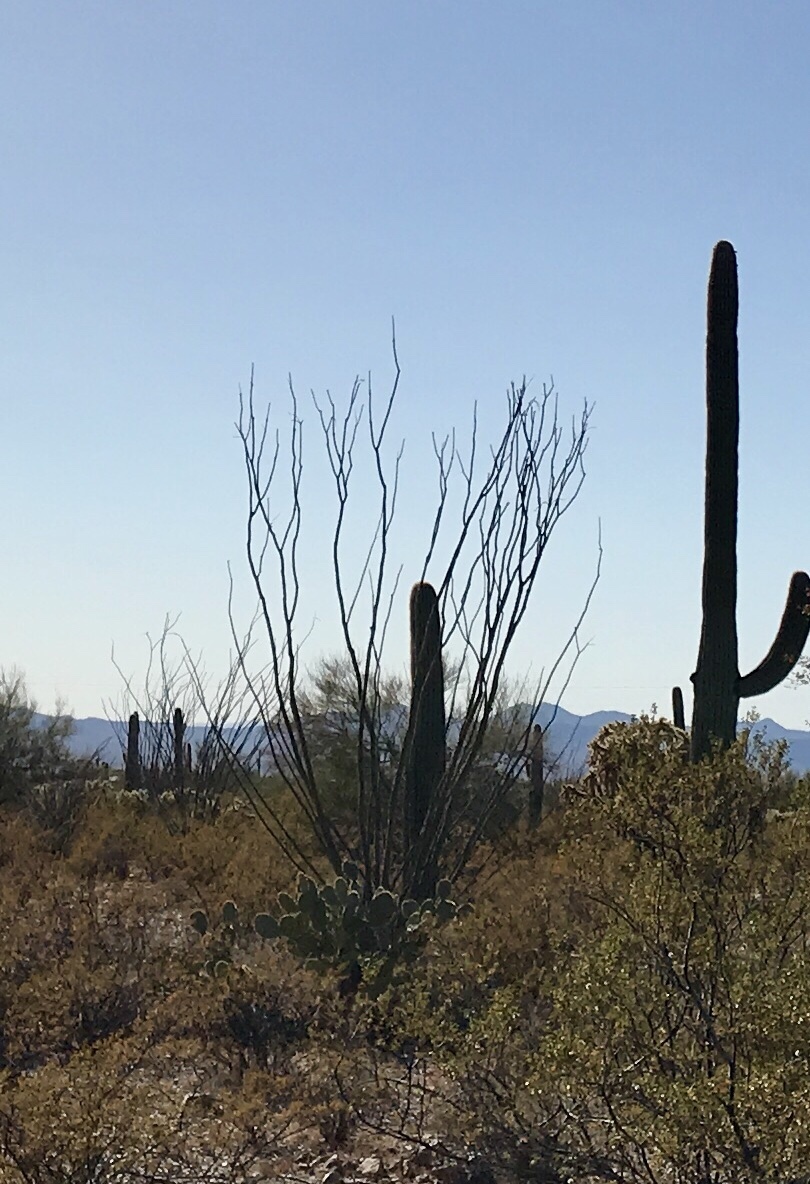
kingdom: Plantae
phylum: Tracheophyta
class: Magnoliopsida
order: Ericales
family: Fouquieriaceae
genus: Fouquieria
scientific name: Fouquieria splendens
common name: Vine-cactus
